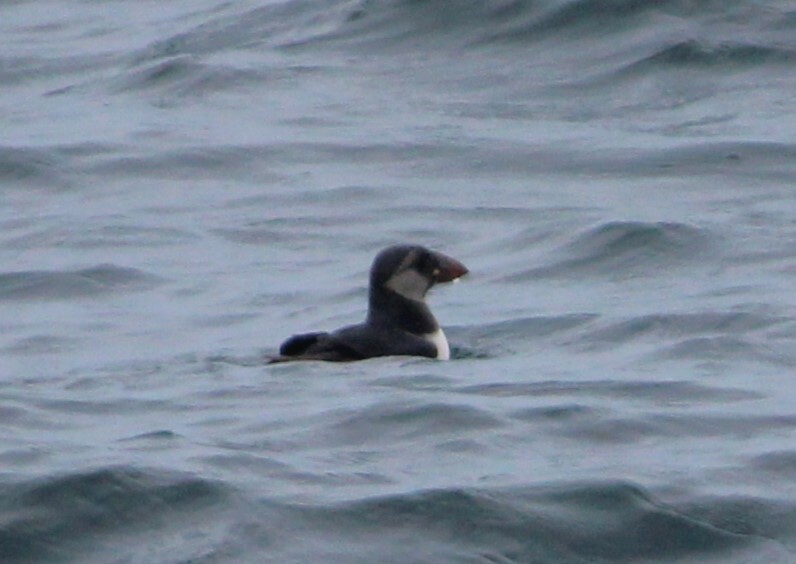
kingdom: Animalia
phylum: Chordata
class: Aves
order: Charadriiformes
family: Alcidae
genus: Fratercula
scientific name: Fratercula arctica
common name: Atlantic puffin
